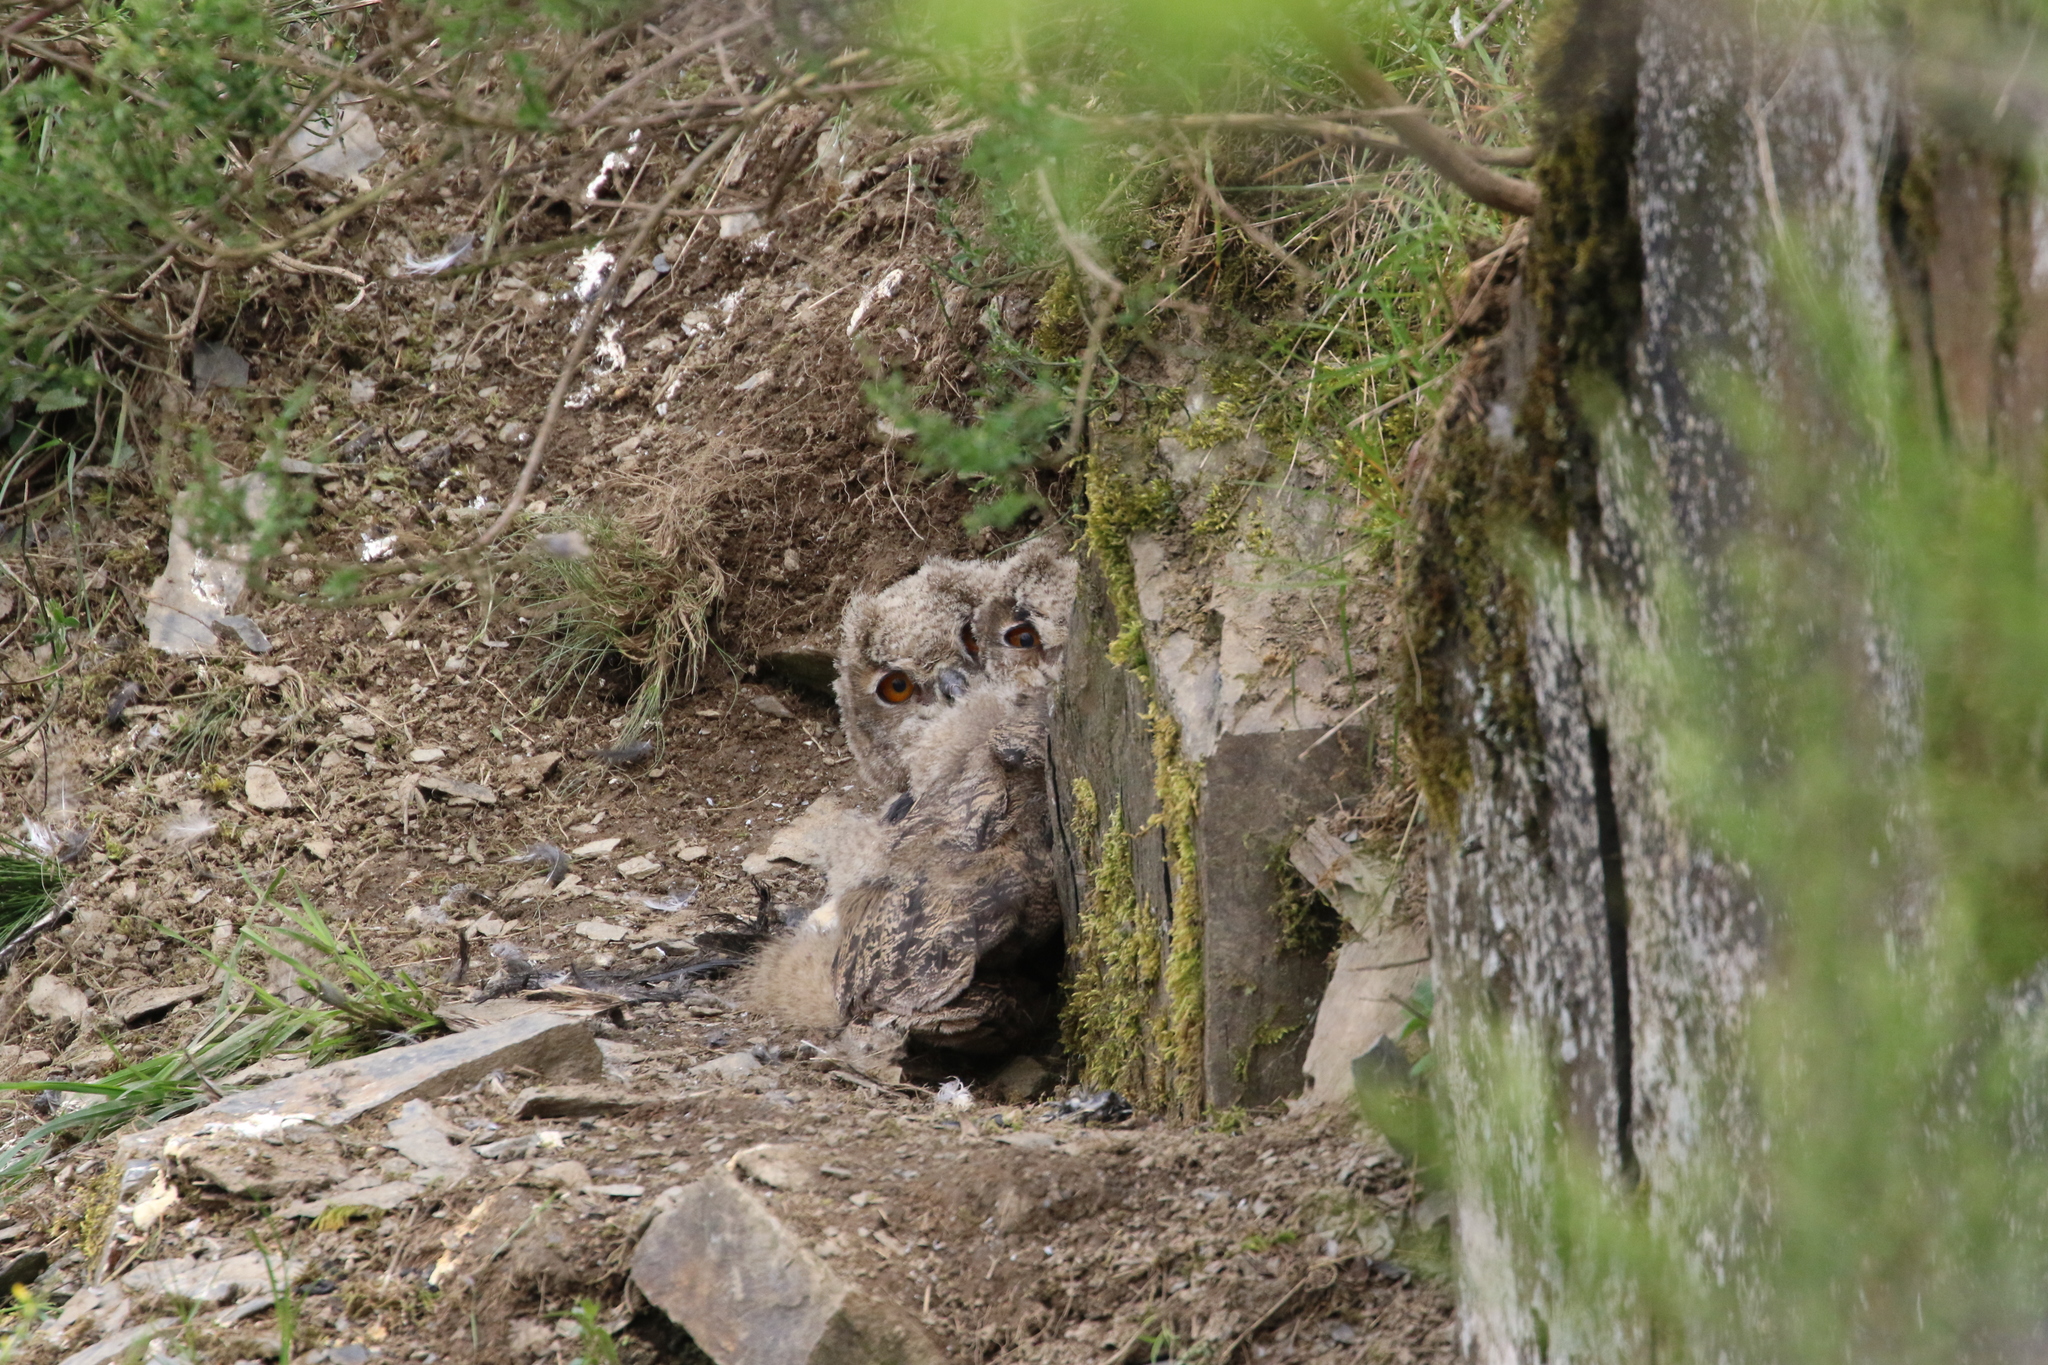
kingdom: Animalia
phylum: Chordata
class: Aves
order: Strigiformes
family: Strigidae
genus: Bubo
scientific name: Bubo bubo
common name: Eurasian eagle-owl
